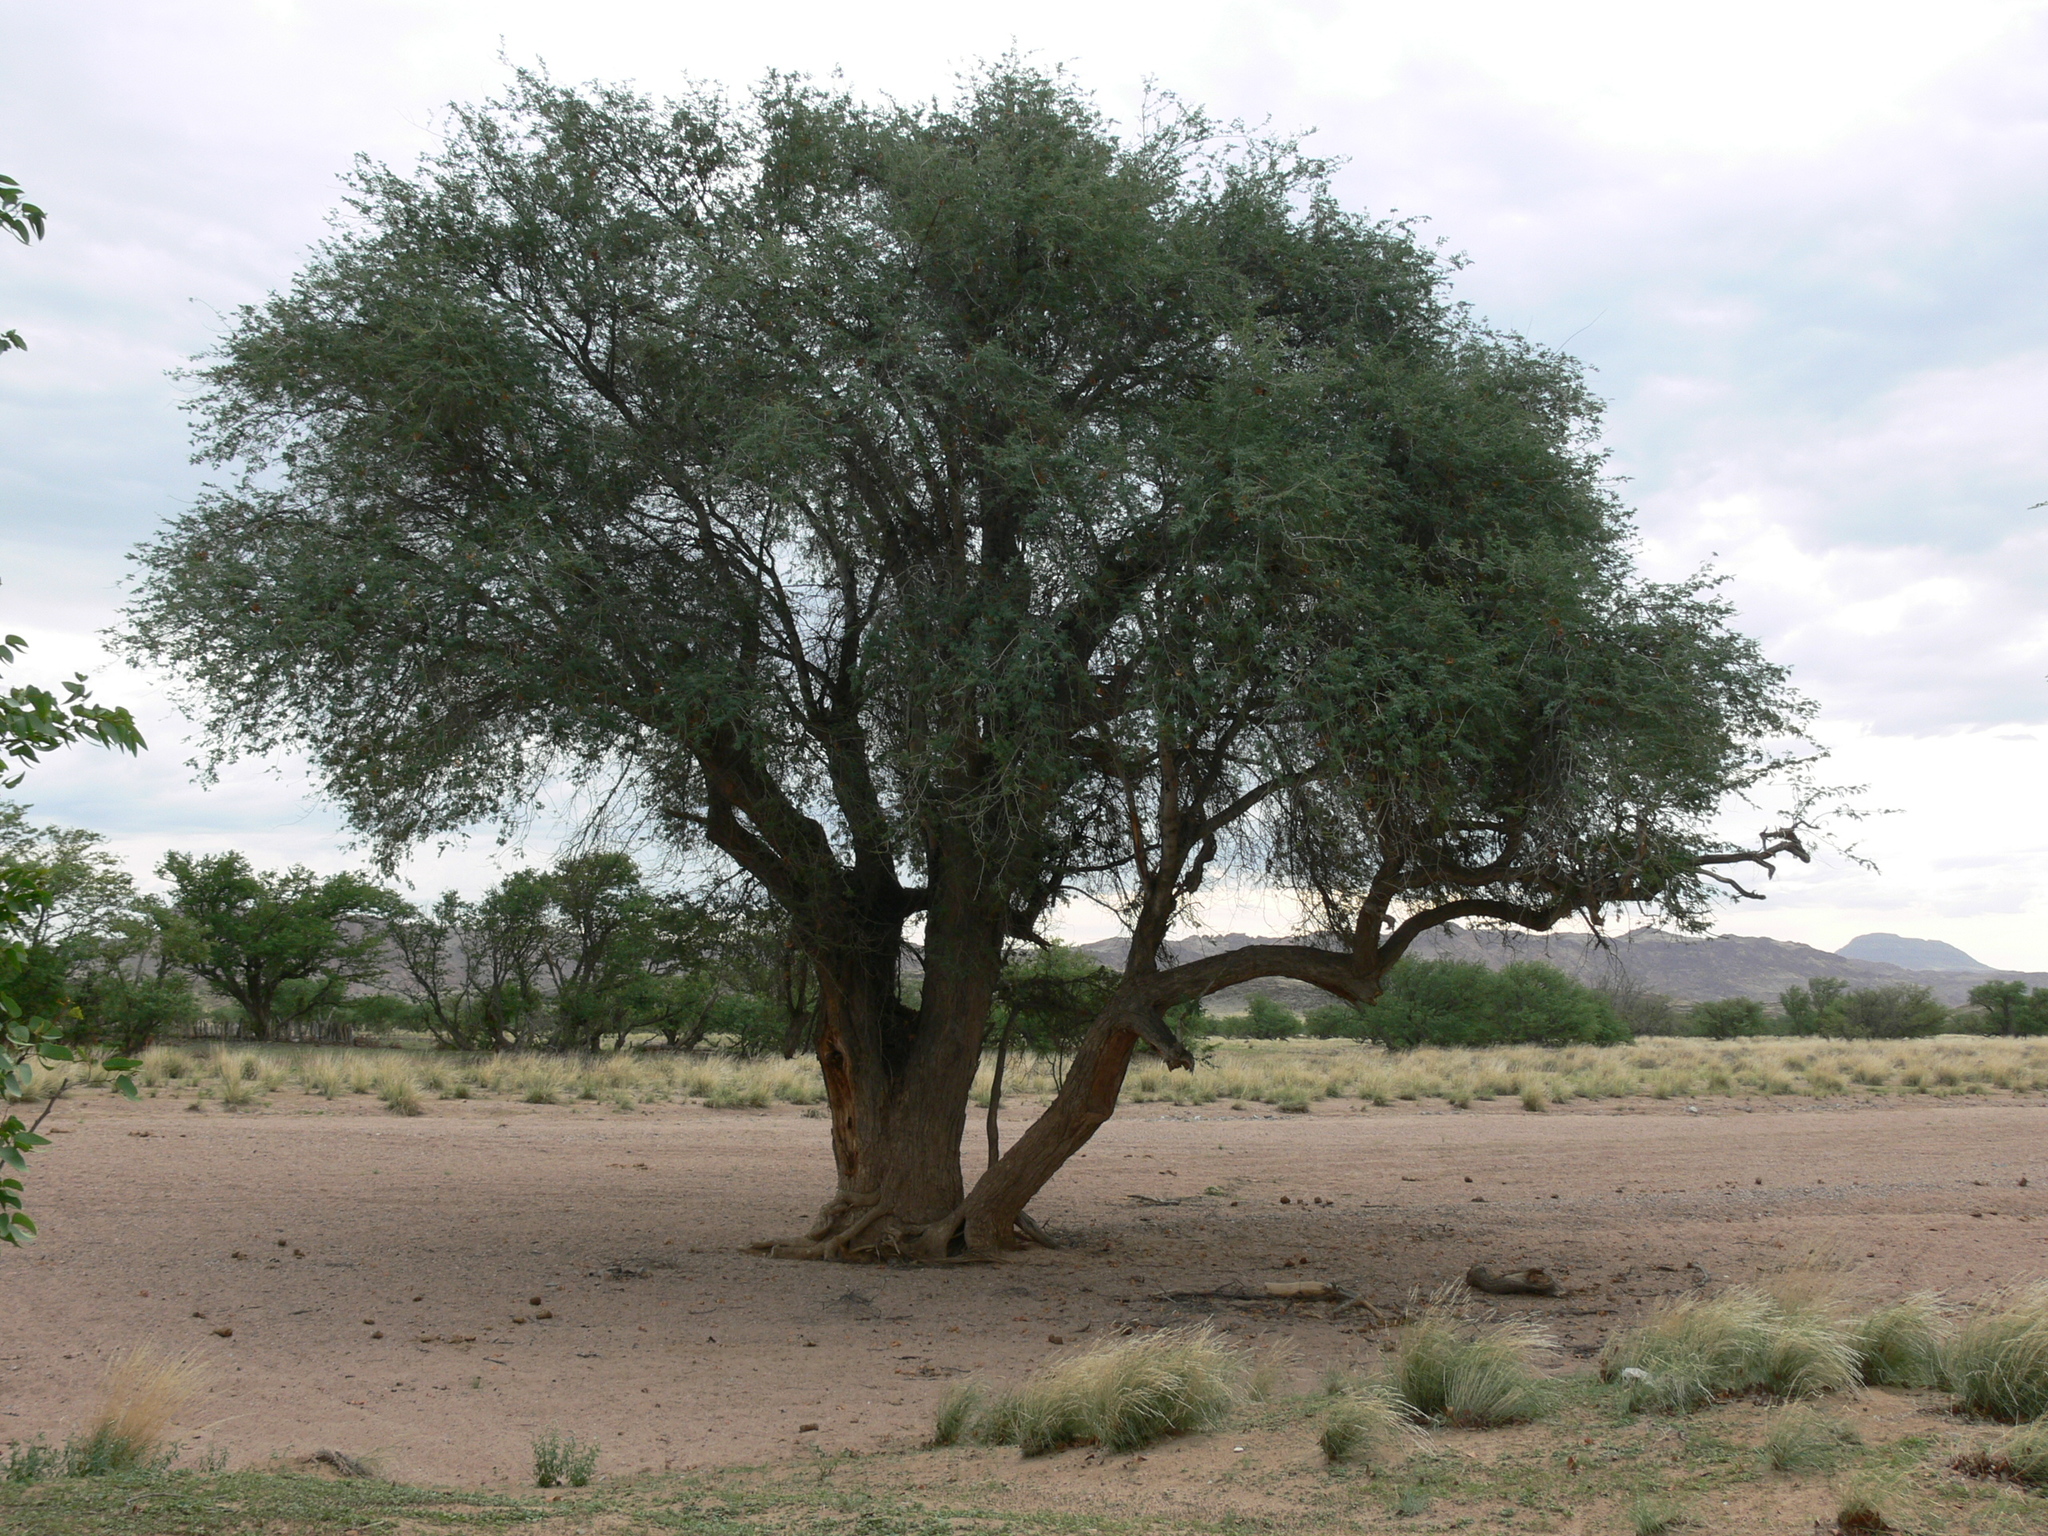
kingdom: Plantae
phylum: Tracheophyta
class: Magnoliopsida
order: Fabales
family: Fabaceae
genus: Faidherbia
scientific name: Faidherbia albida
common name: Anatree
